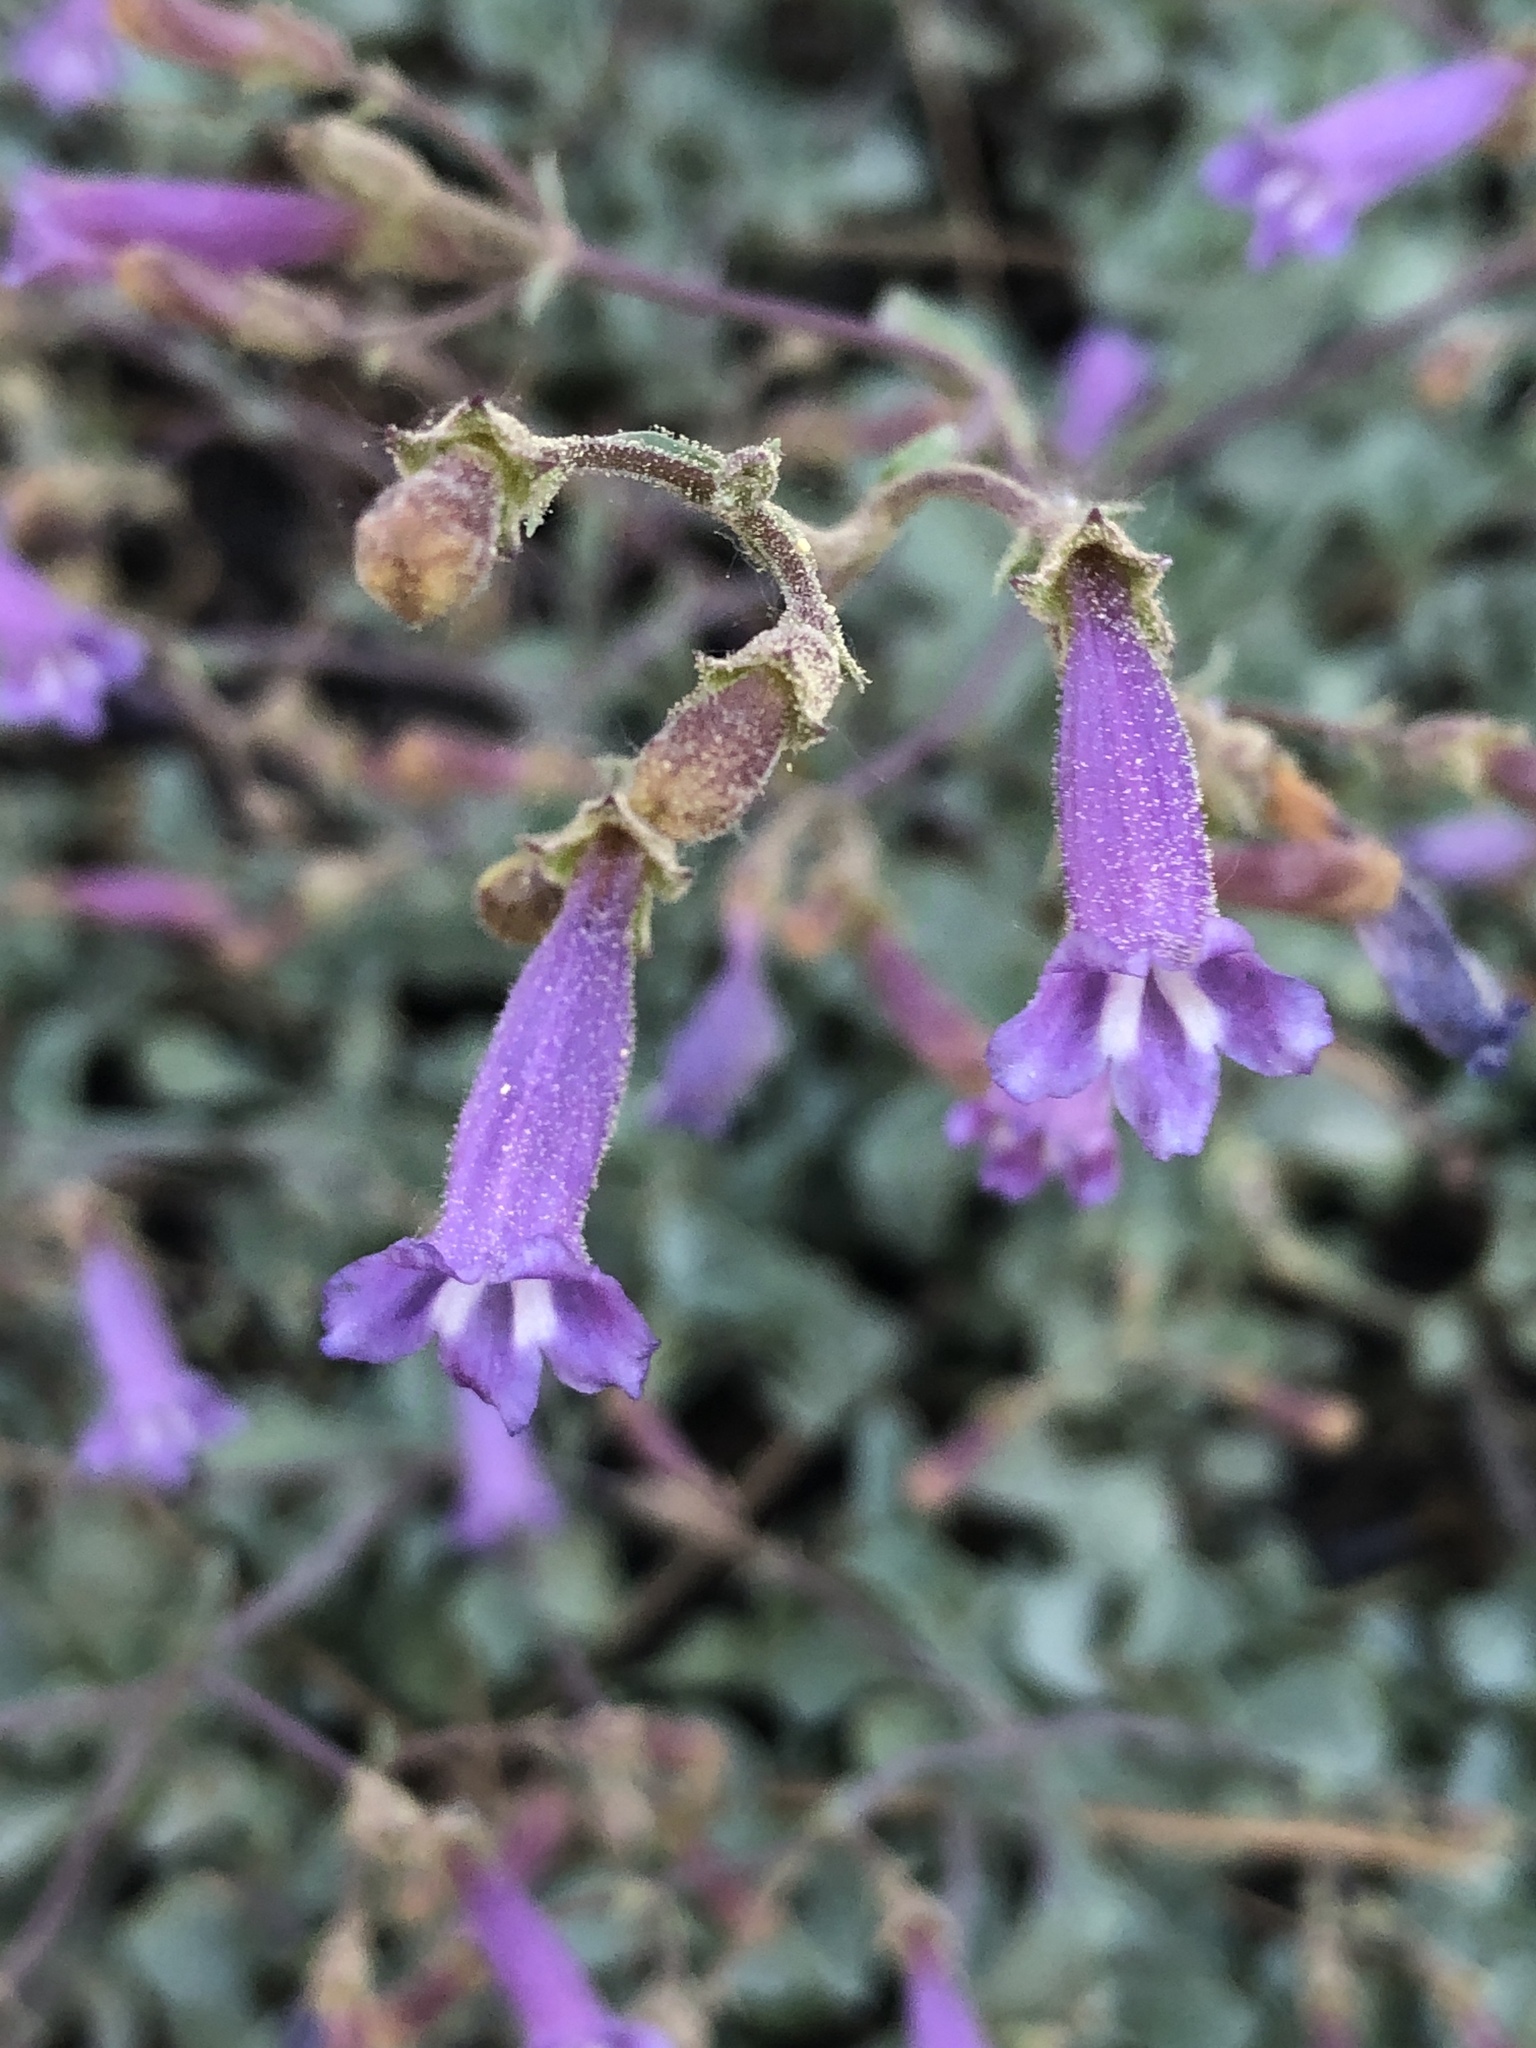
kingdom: Plantae
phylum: Tracheophyta
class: Magnoliopsida
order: Lamiales
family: Plantaginaceae
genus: Penstemon
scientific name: Penstemon caesius
